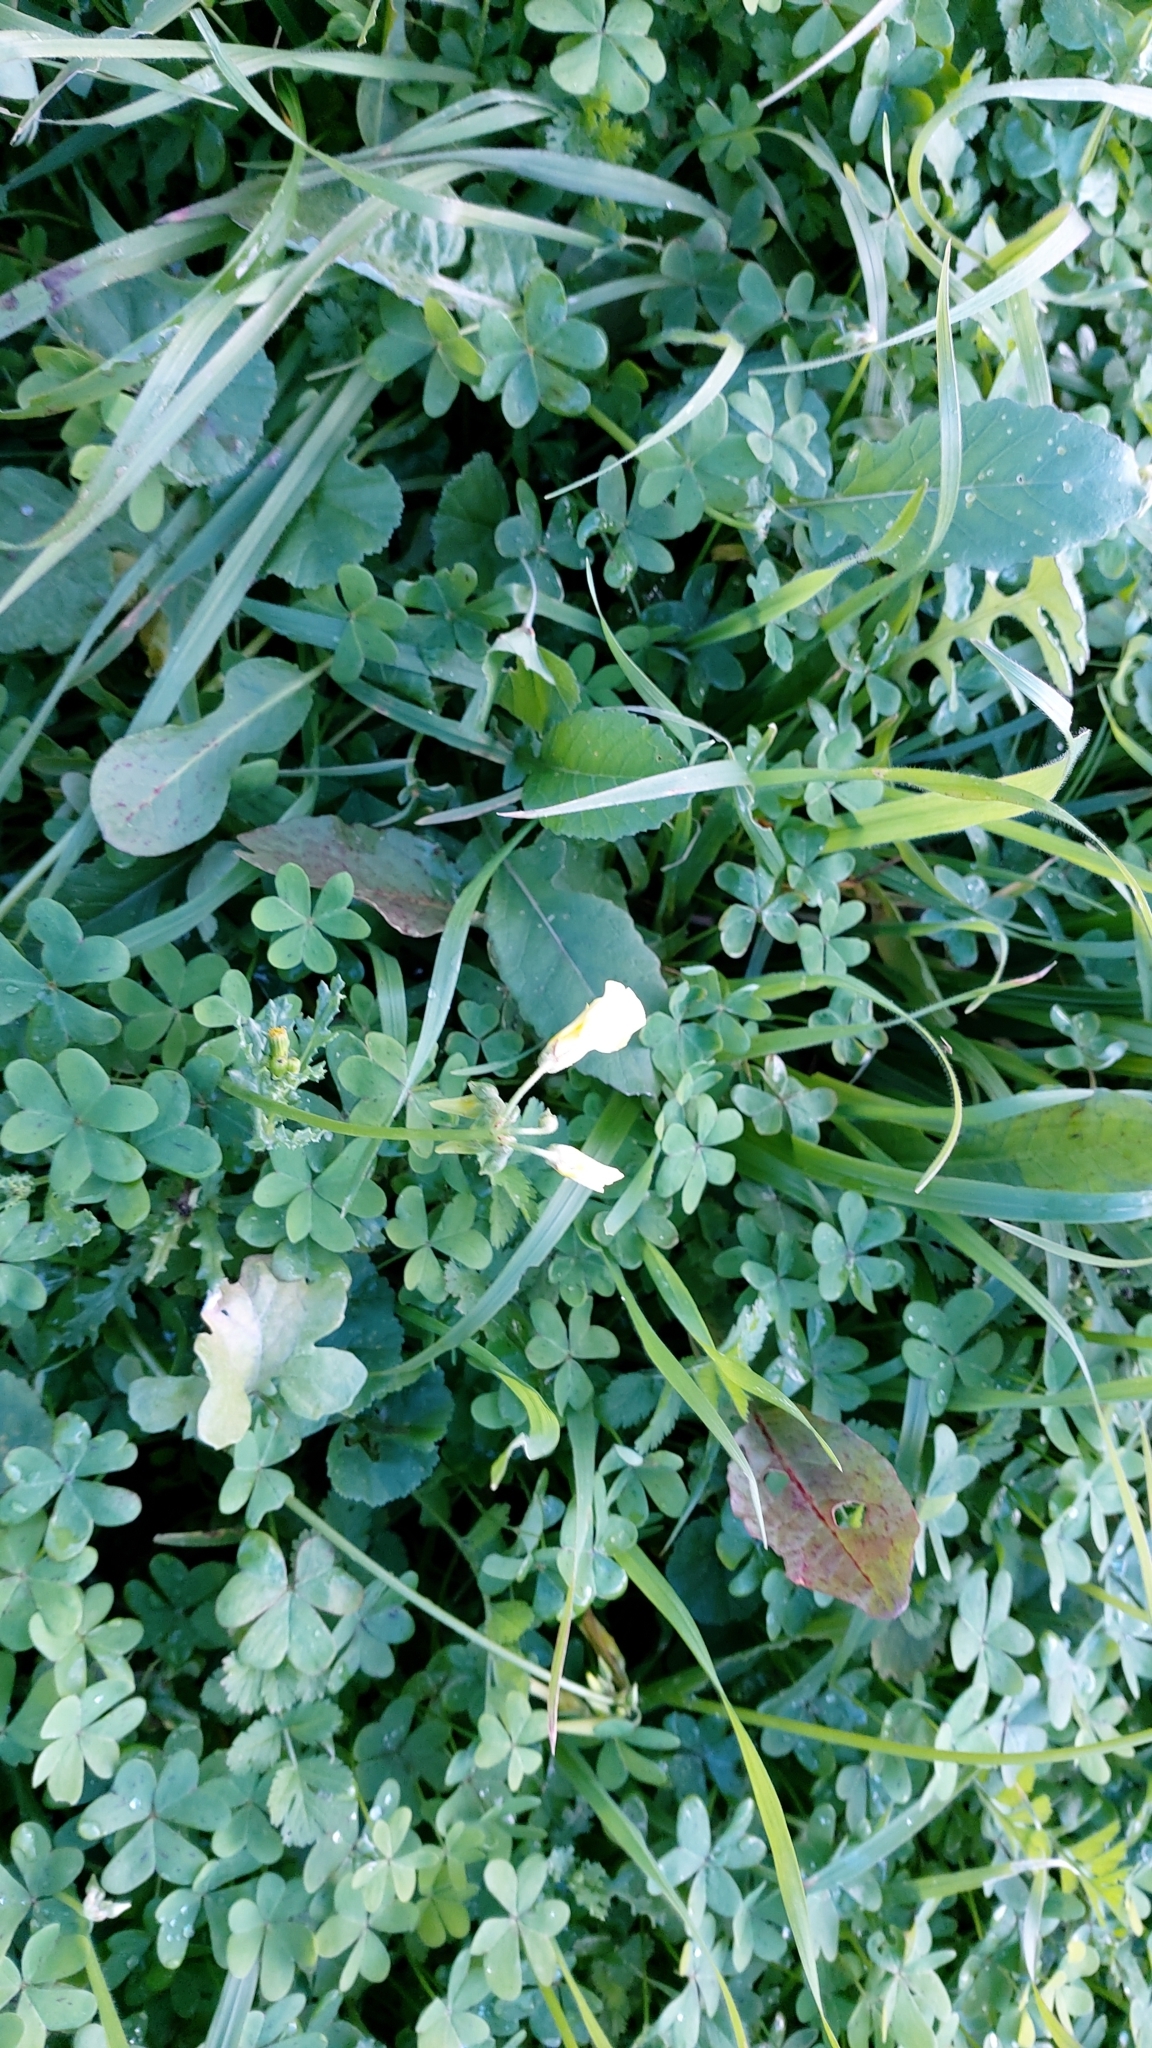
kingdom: Plantae
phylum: Tracheophyta
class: Magnoliopsida
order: Oxalidales
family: Oxalidaceae
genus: Oxalis
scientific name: Oxalis pes-caprae
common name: Bermuda-buttercup
